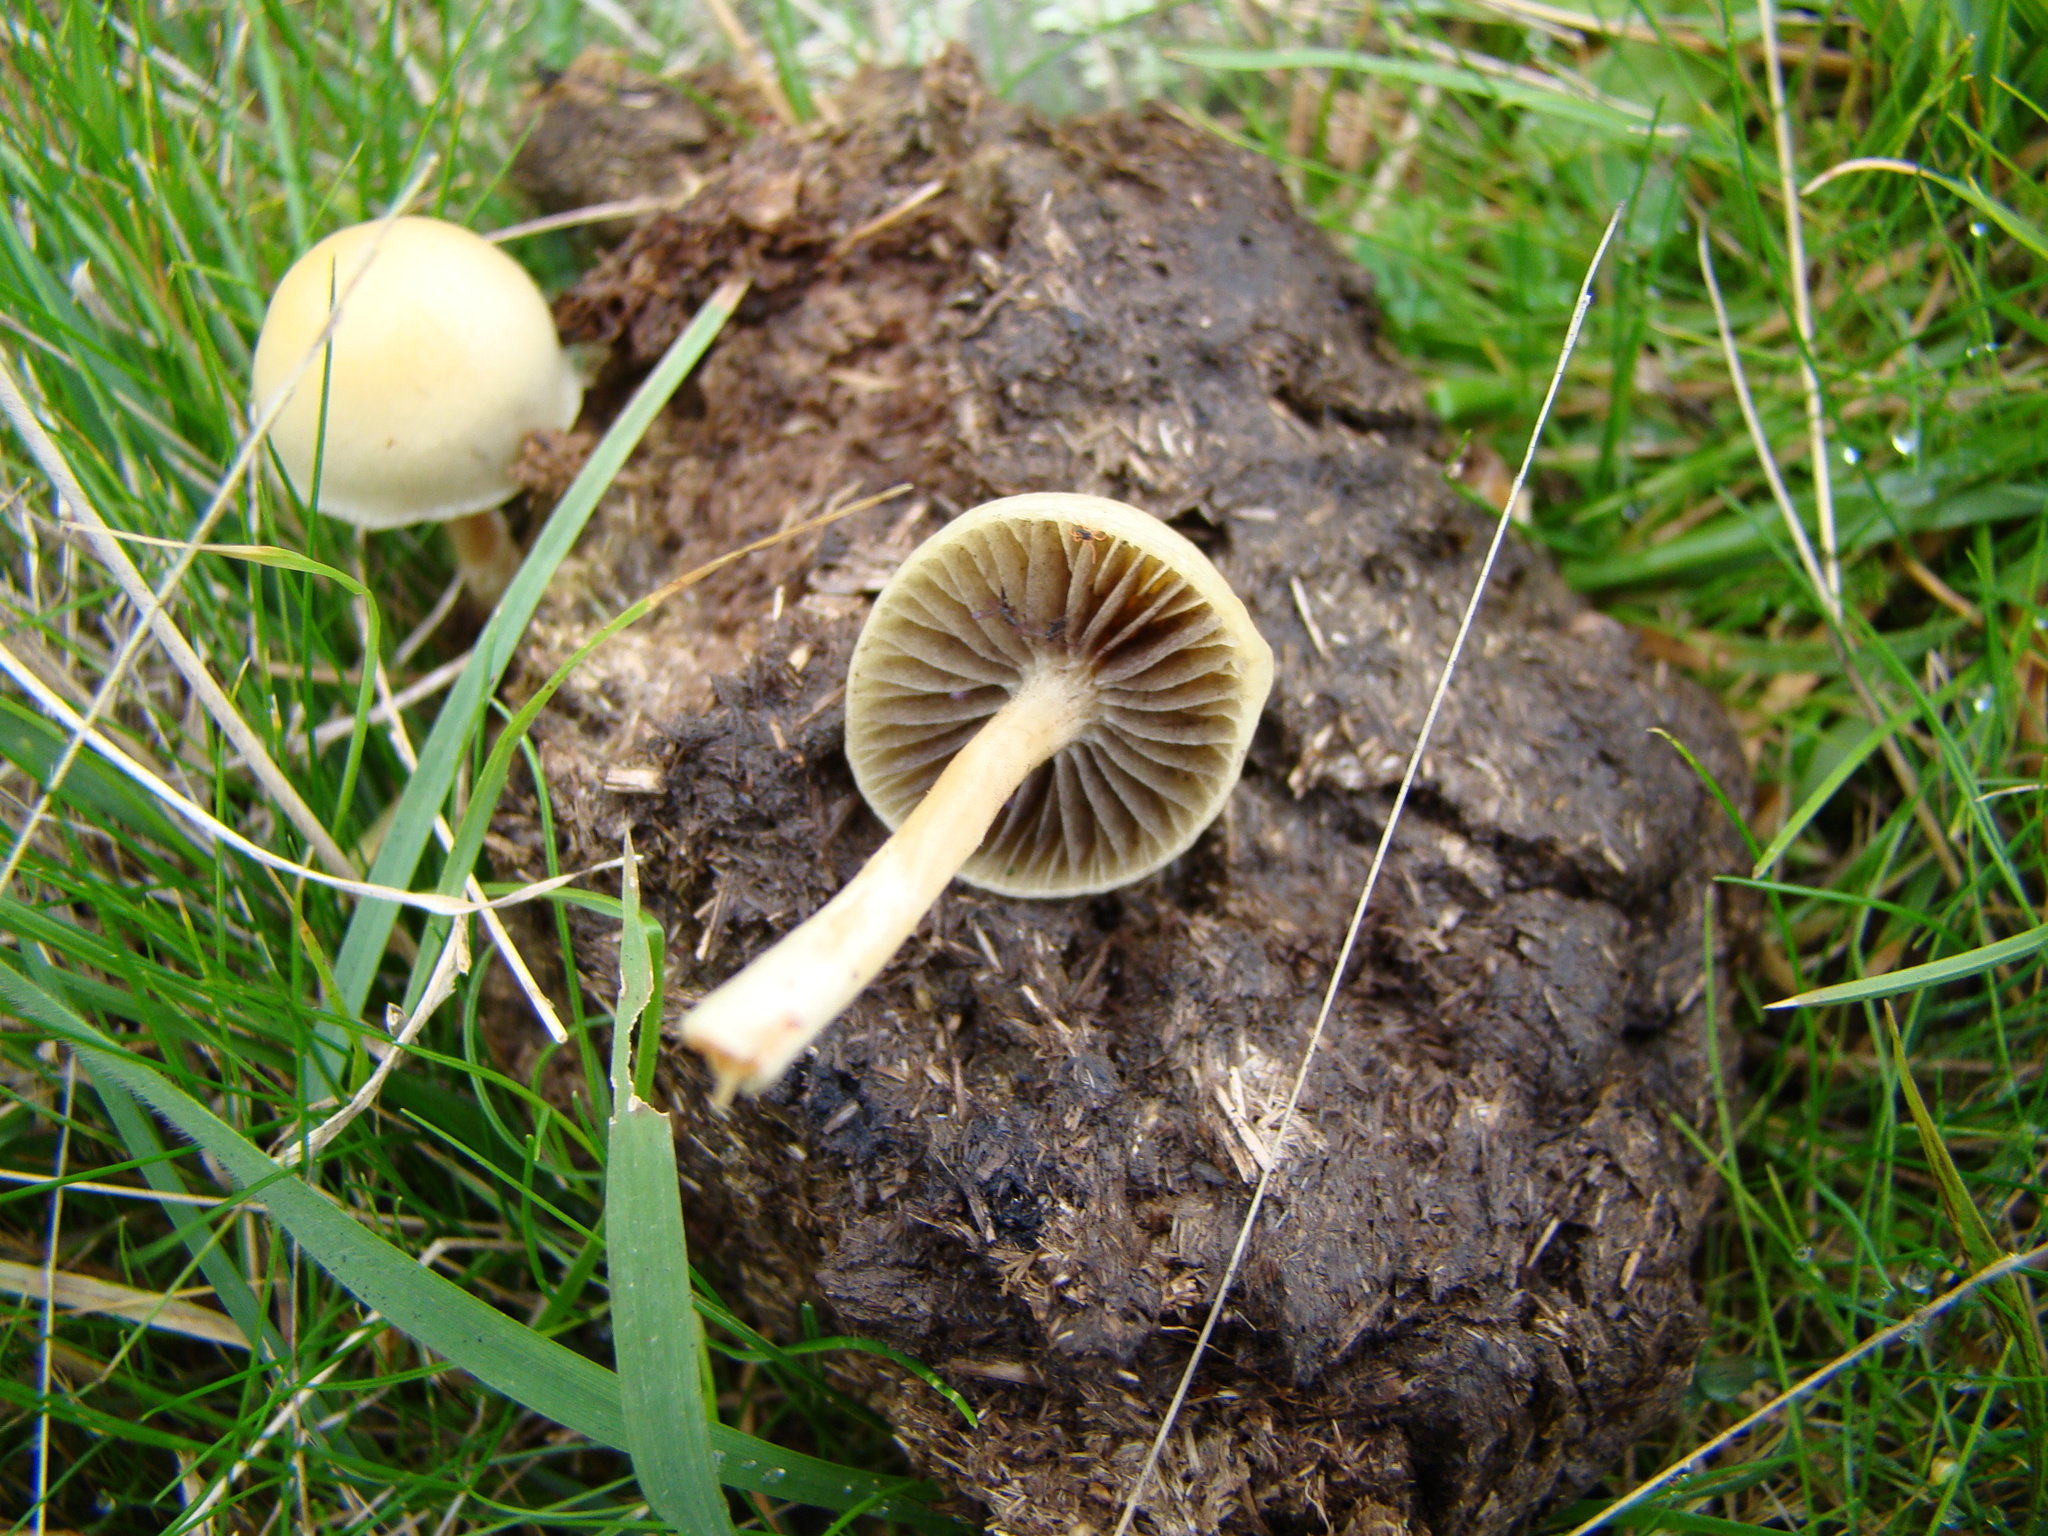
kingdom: Fungi
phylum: Basidiomycota
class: Agaricomycetes
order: Agaricales
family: Strophariaceae
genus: Protostropharia
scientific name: Protostropharia semiglobata
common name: Dung roundhead
